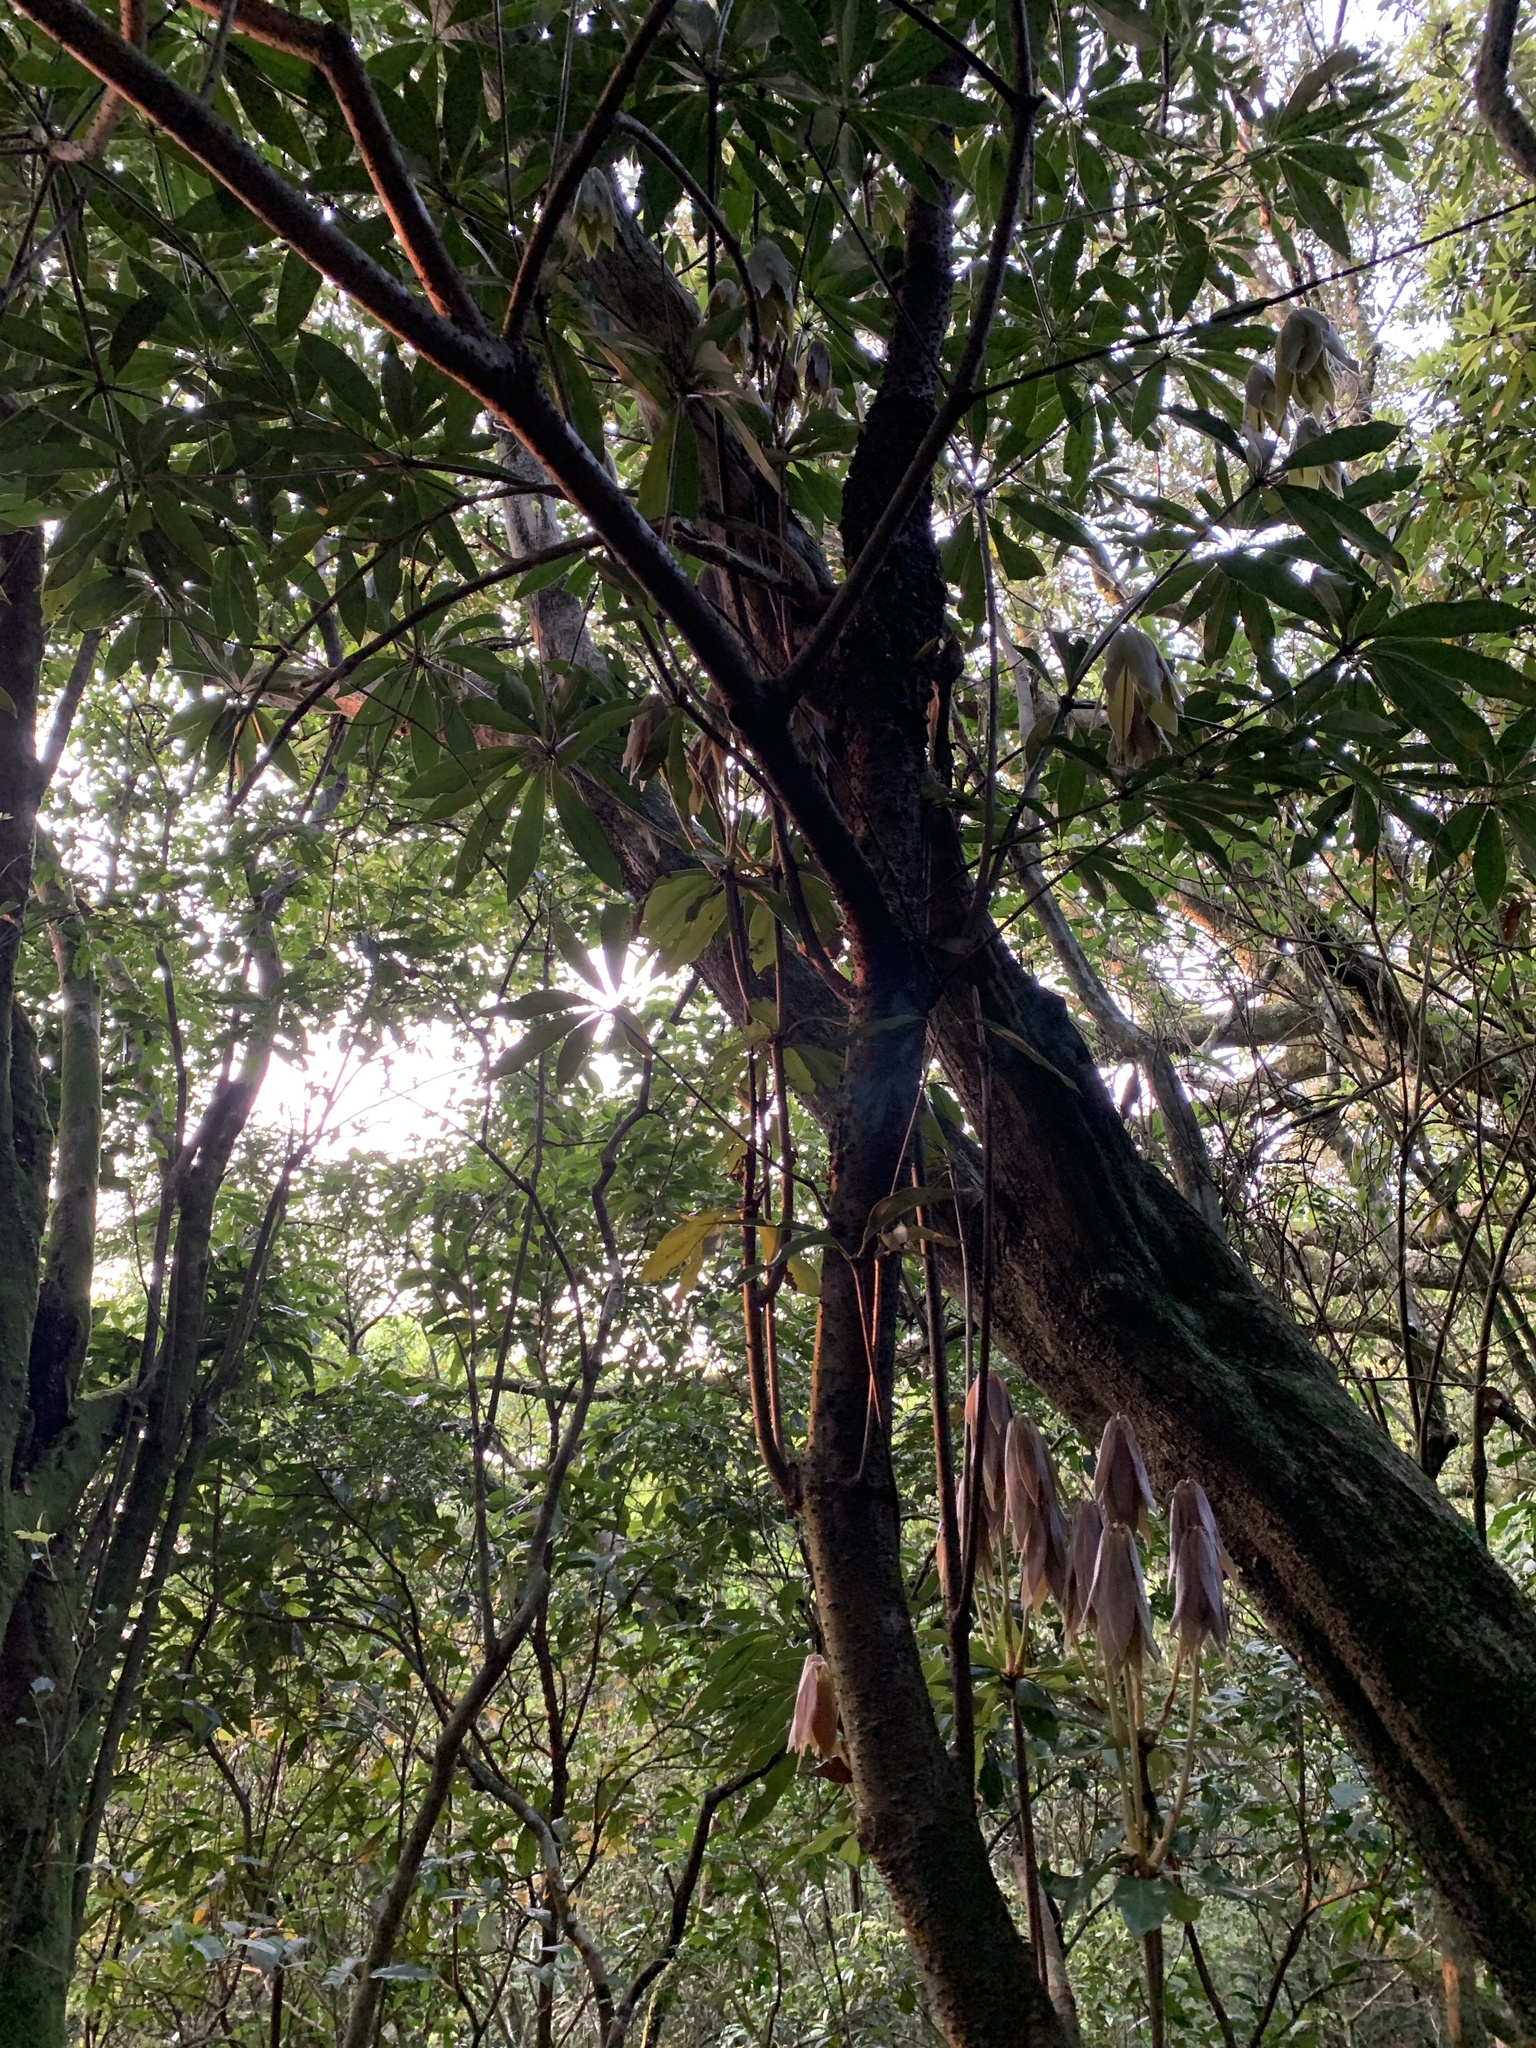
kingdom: Plantae
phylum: Tracheophyta
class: Magnoliopsida
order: Laurales
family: Lauraceae
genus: Neolitsea
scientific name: Neolitsea konishii
